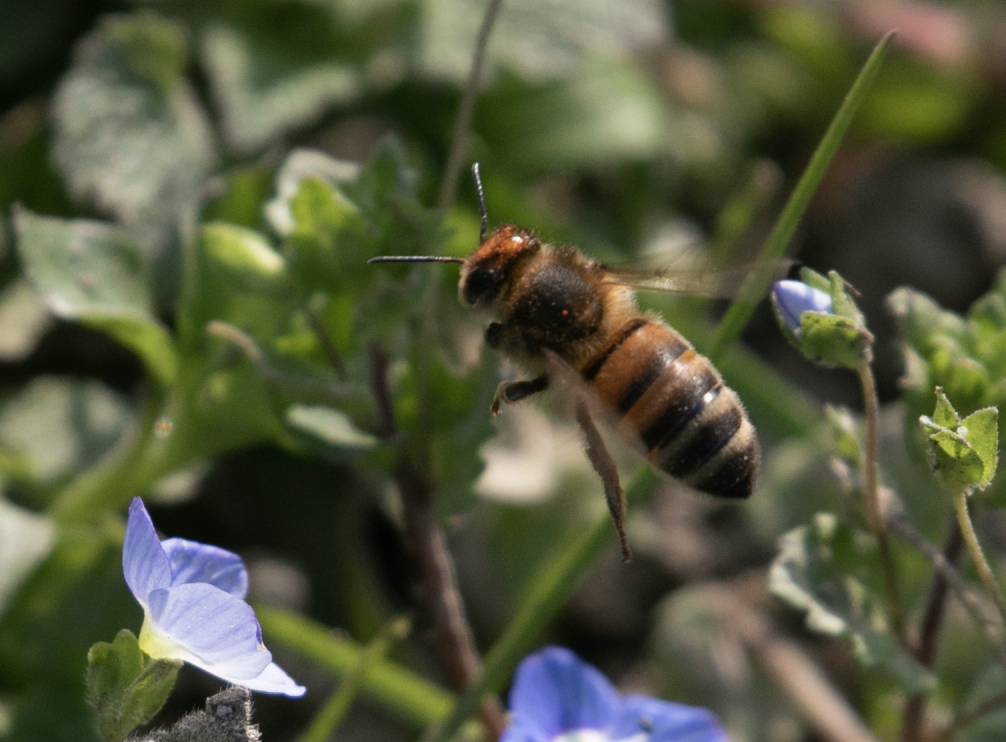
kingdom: Animalia
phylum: Arthropoda
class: Insecta
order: Hymenoptera
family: Apidae
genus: Apis
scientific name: Apis mellifera
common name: Honey bee
